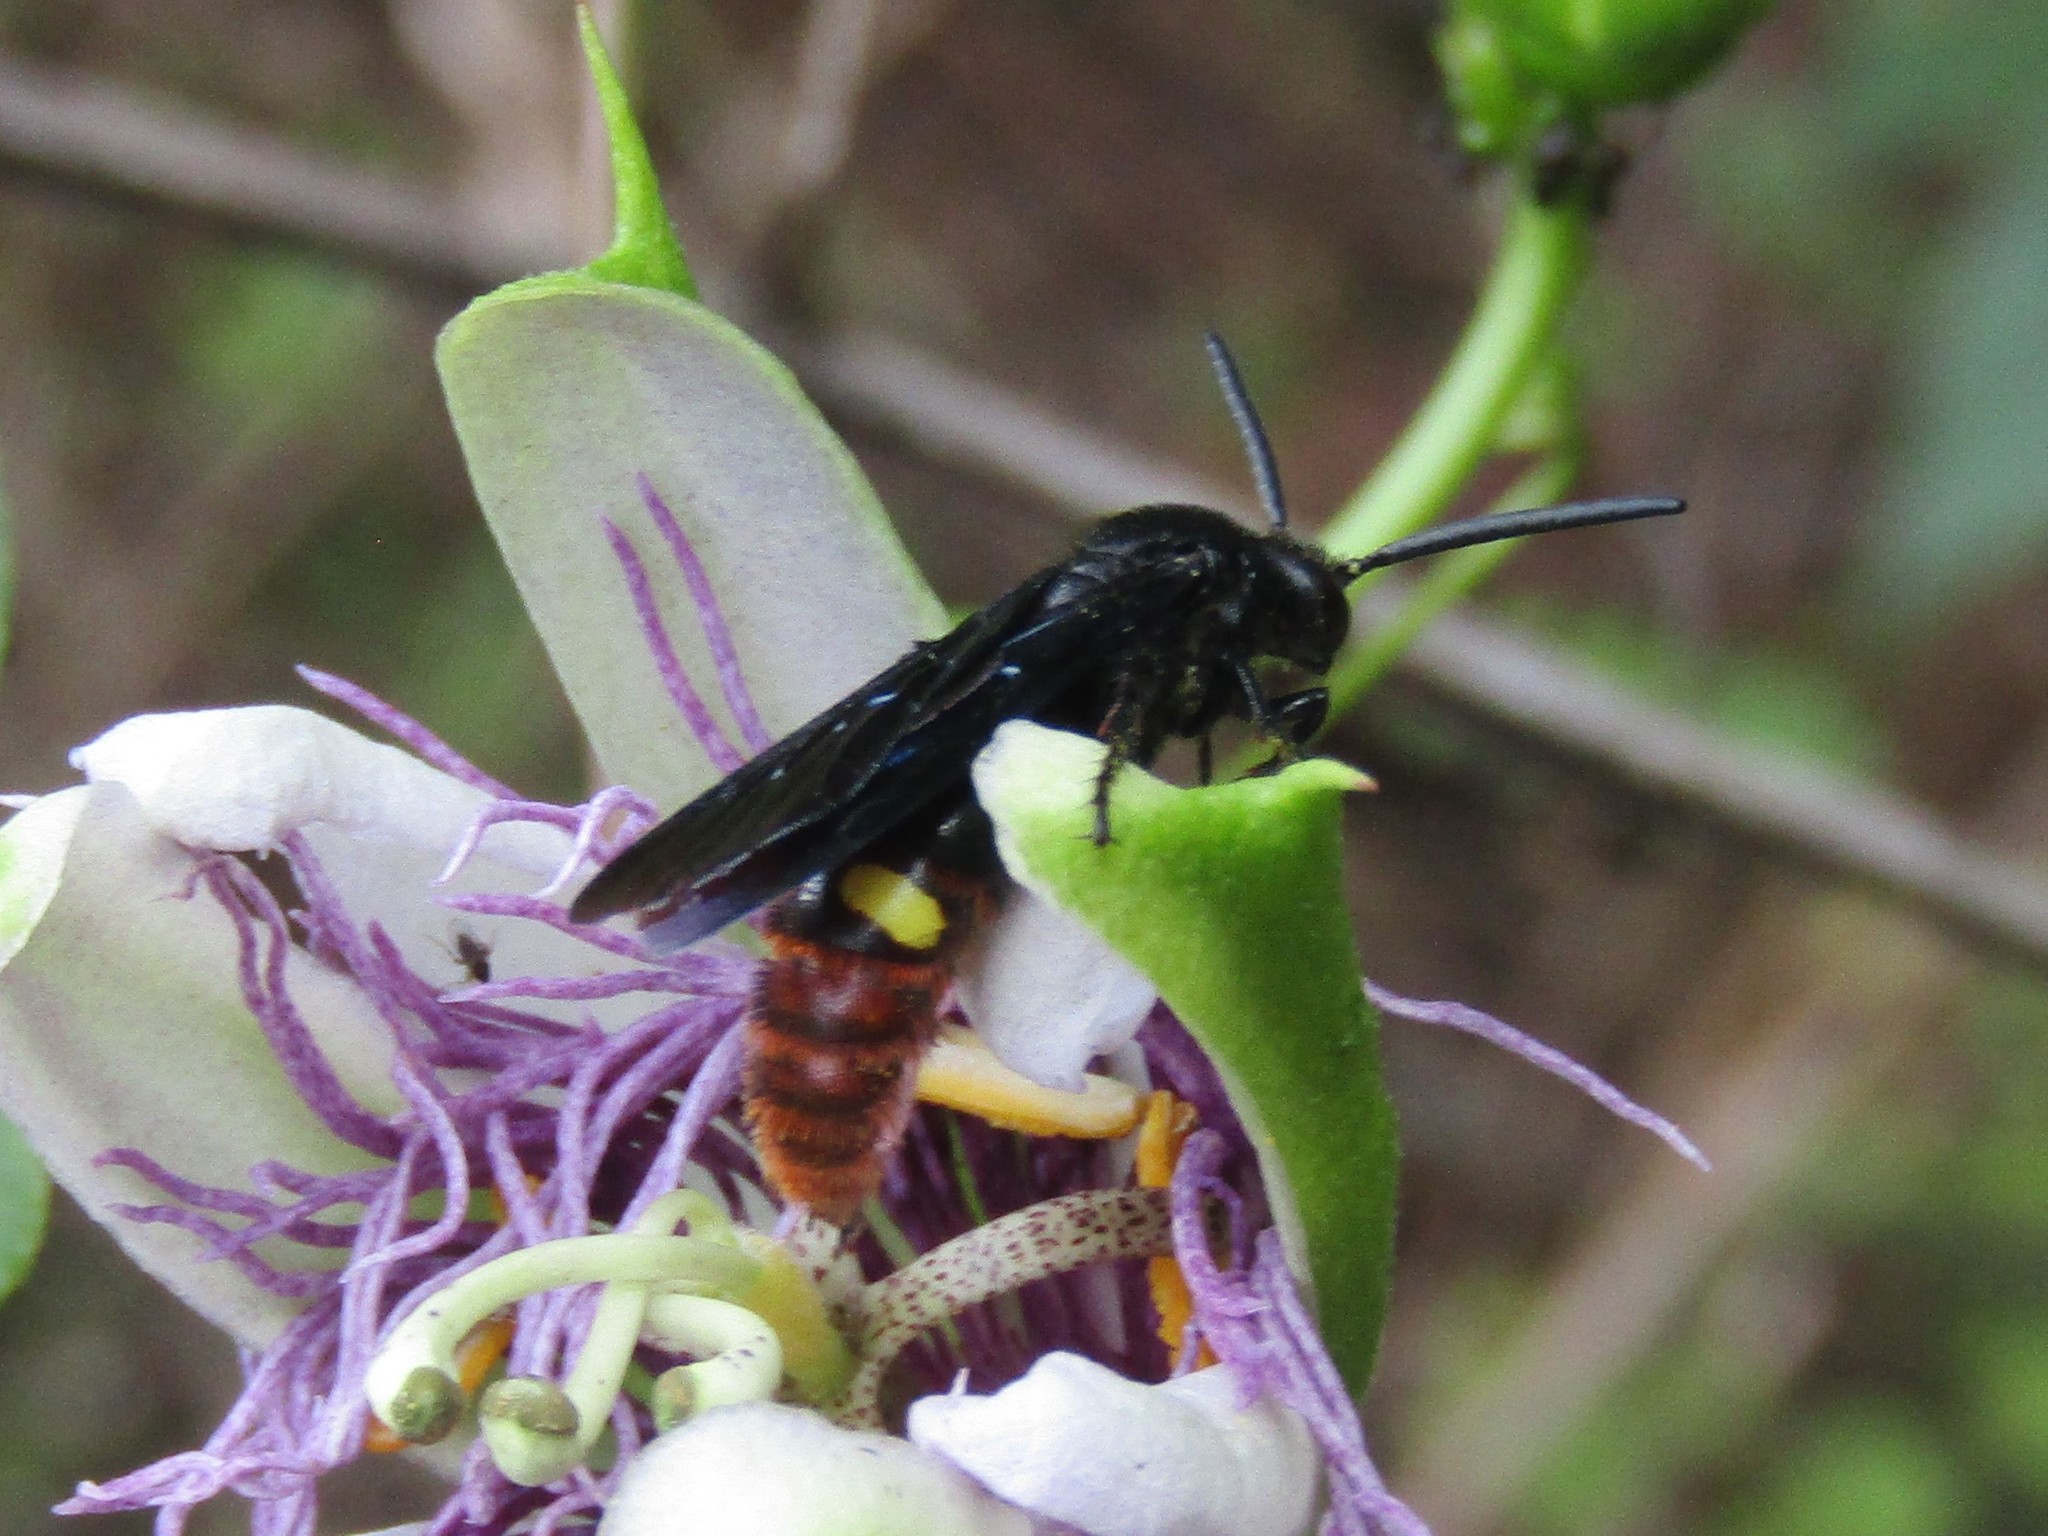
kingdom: Animalia
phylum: Arthropoda
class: Insecta
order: Hymenoptera
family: Scoliidae
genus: Scolia
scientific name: Scolia dubia
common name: Blue-winged scoliid wasp
